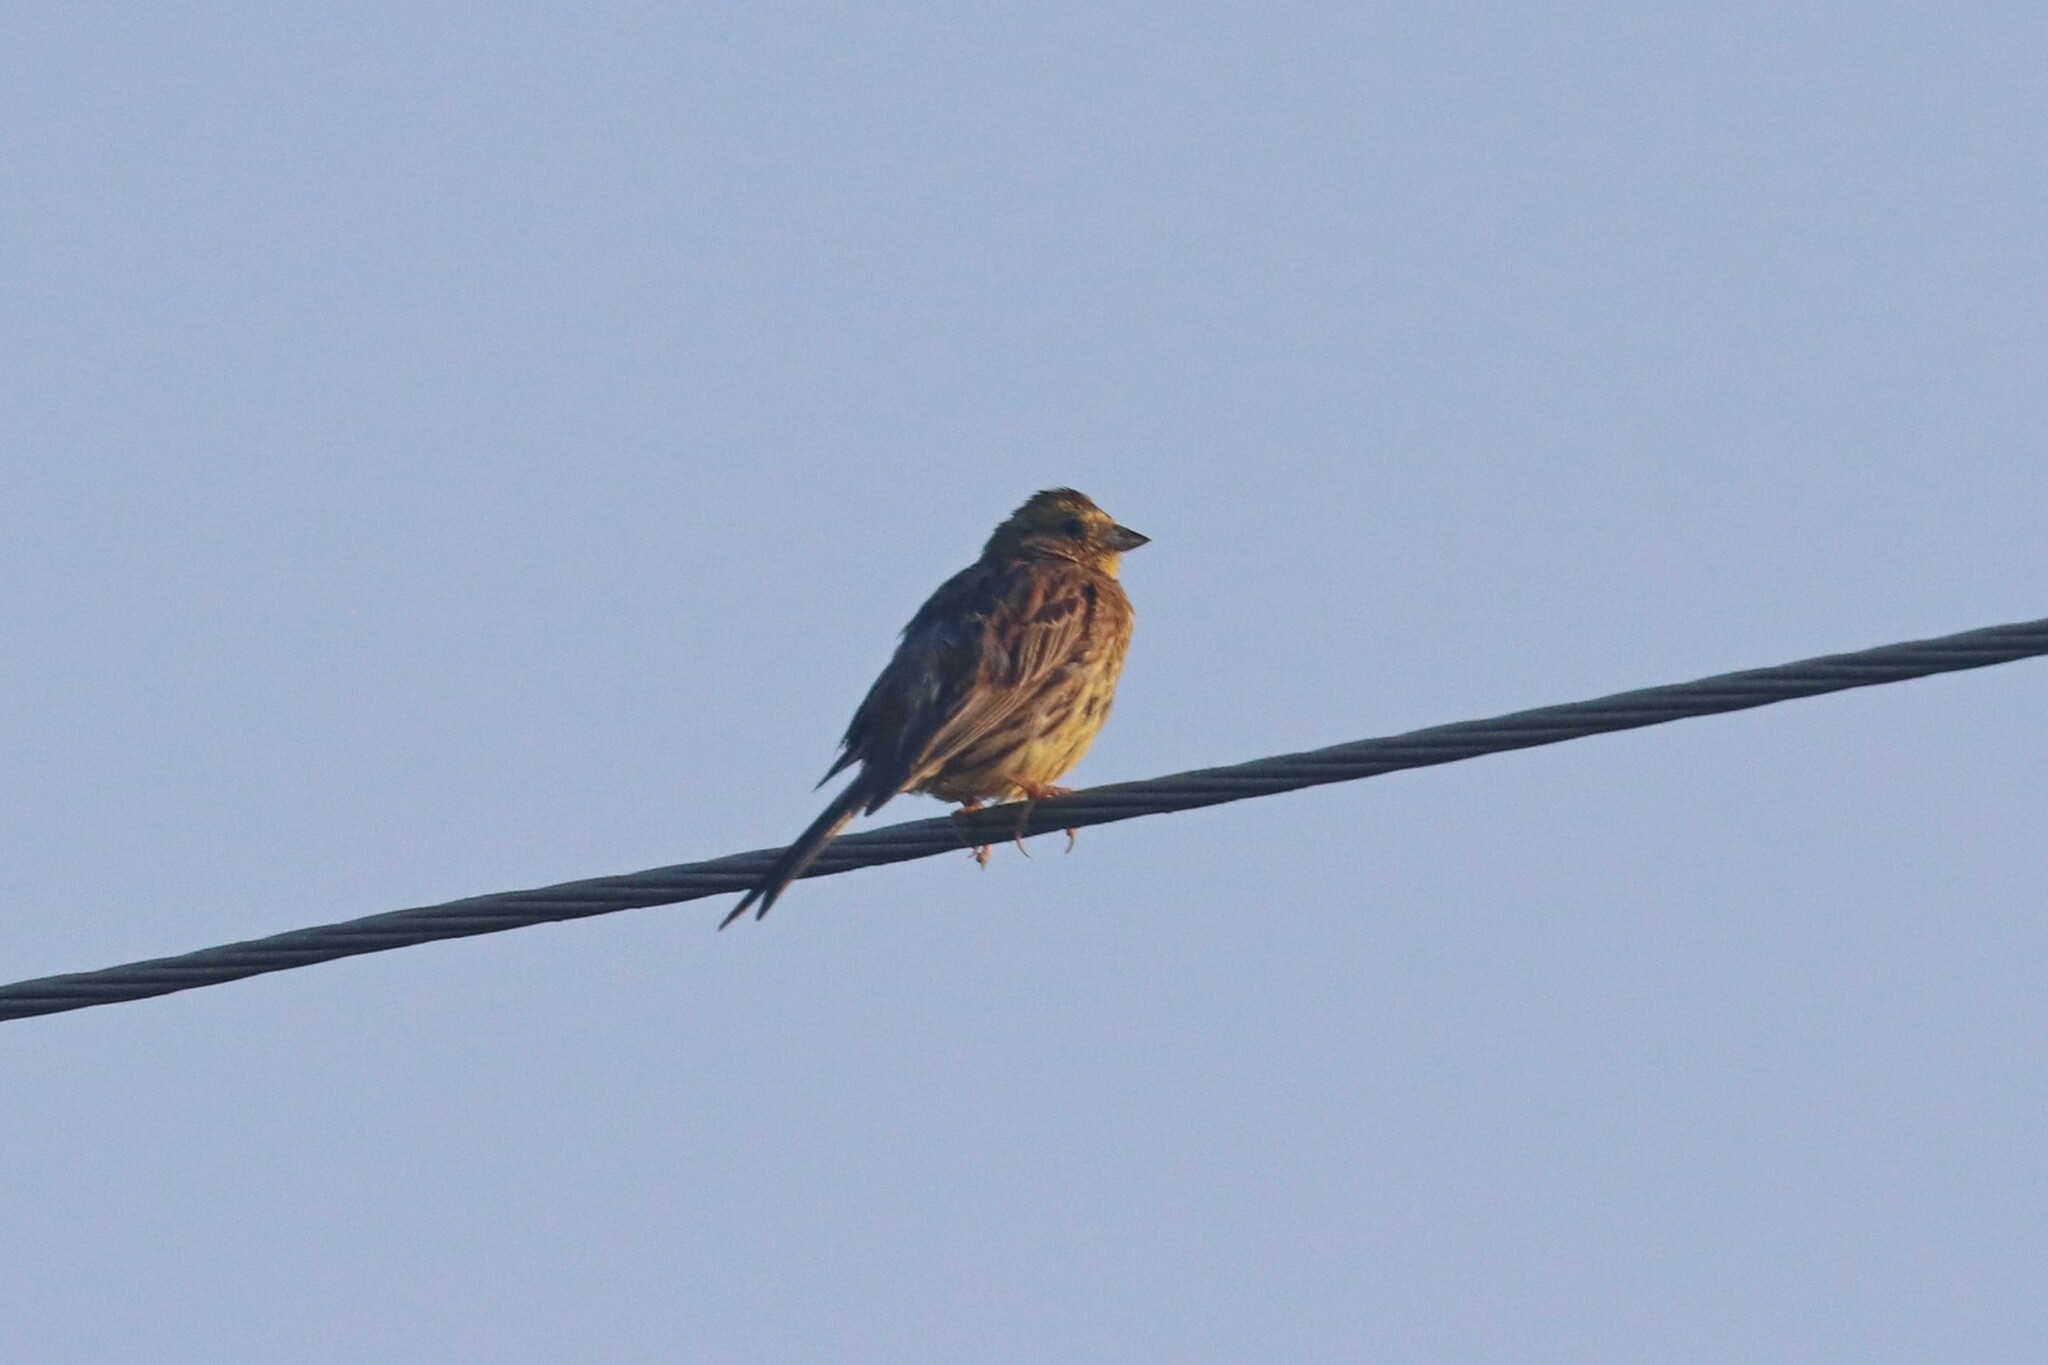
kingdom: Animalia
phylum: Chordata
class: Aves
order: Passeriformes
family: Emberizidae
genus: Emberiza
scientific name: Emberiza citrinella
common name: Yellowhammer
